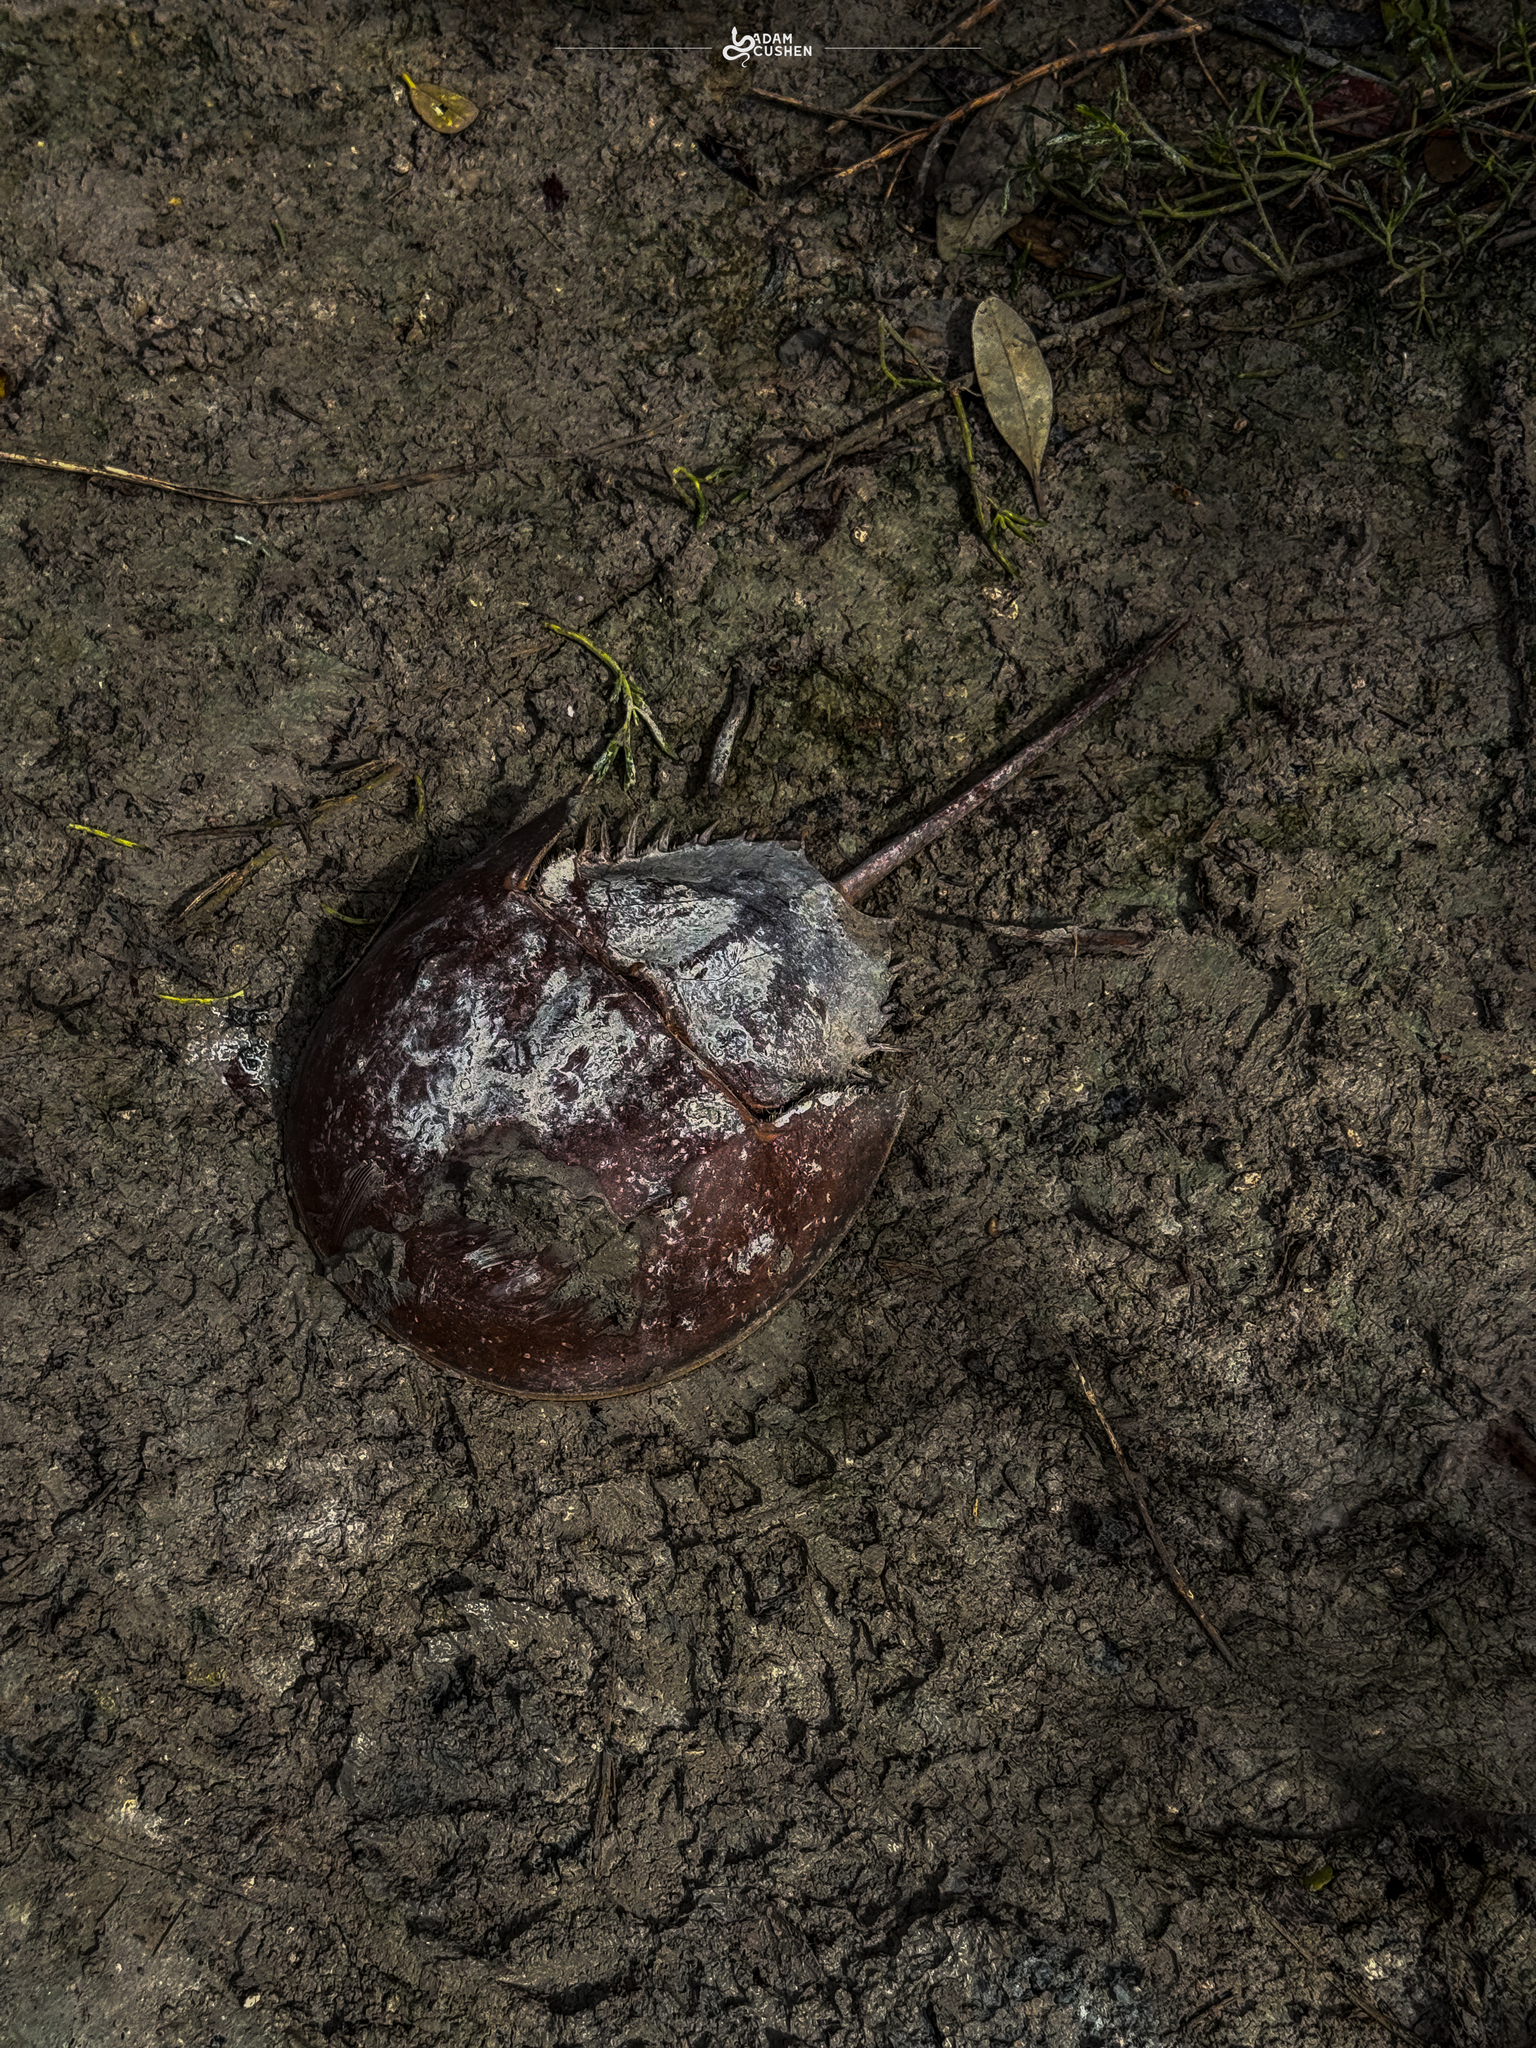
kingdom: Animalia
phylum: Arthropoda
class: Merostomata
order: Xiphosurida
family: Limulidae
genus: Limulus
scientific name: Limulus polyphemus
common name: Horseshoe crab
